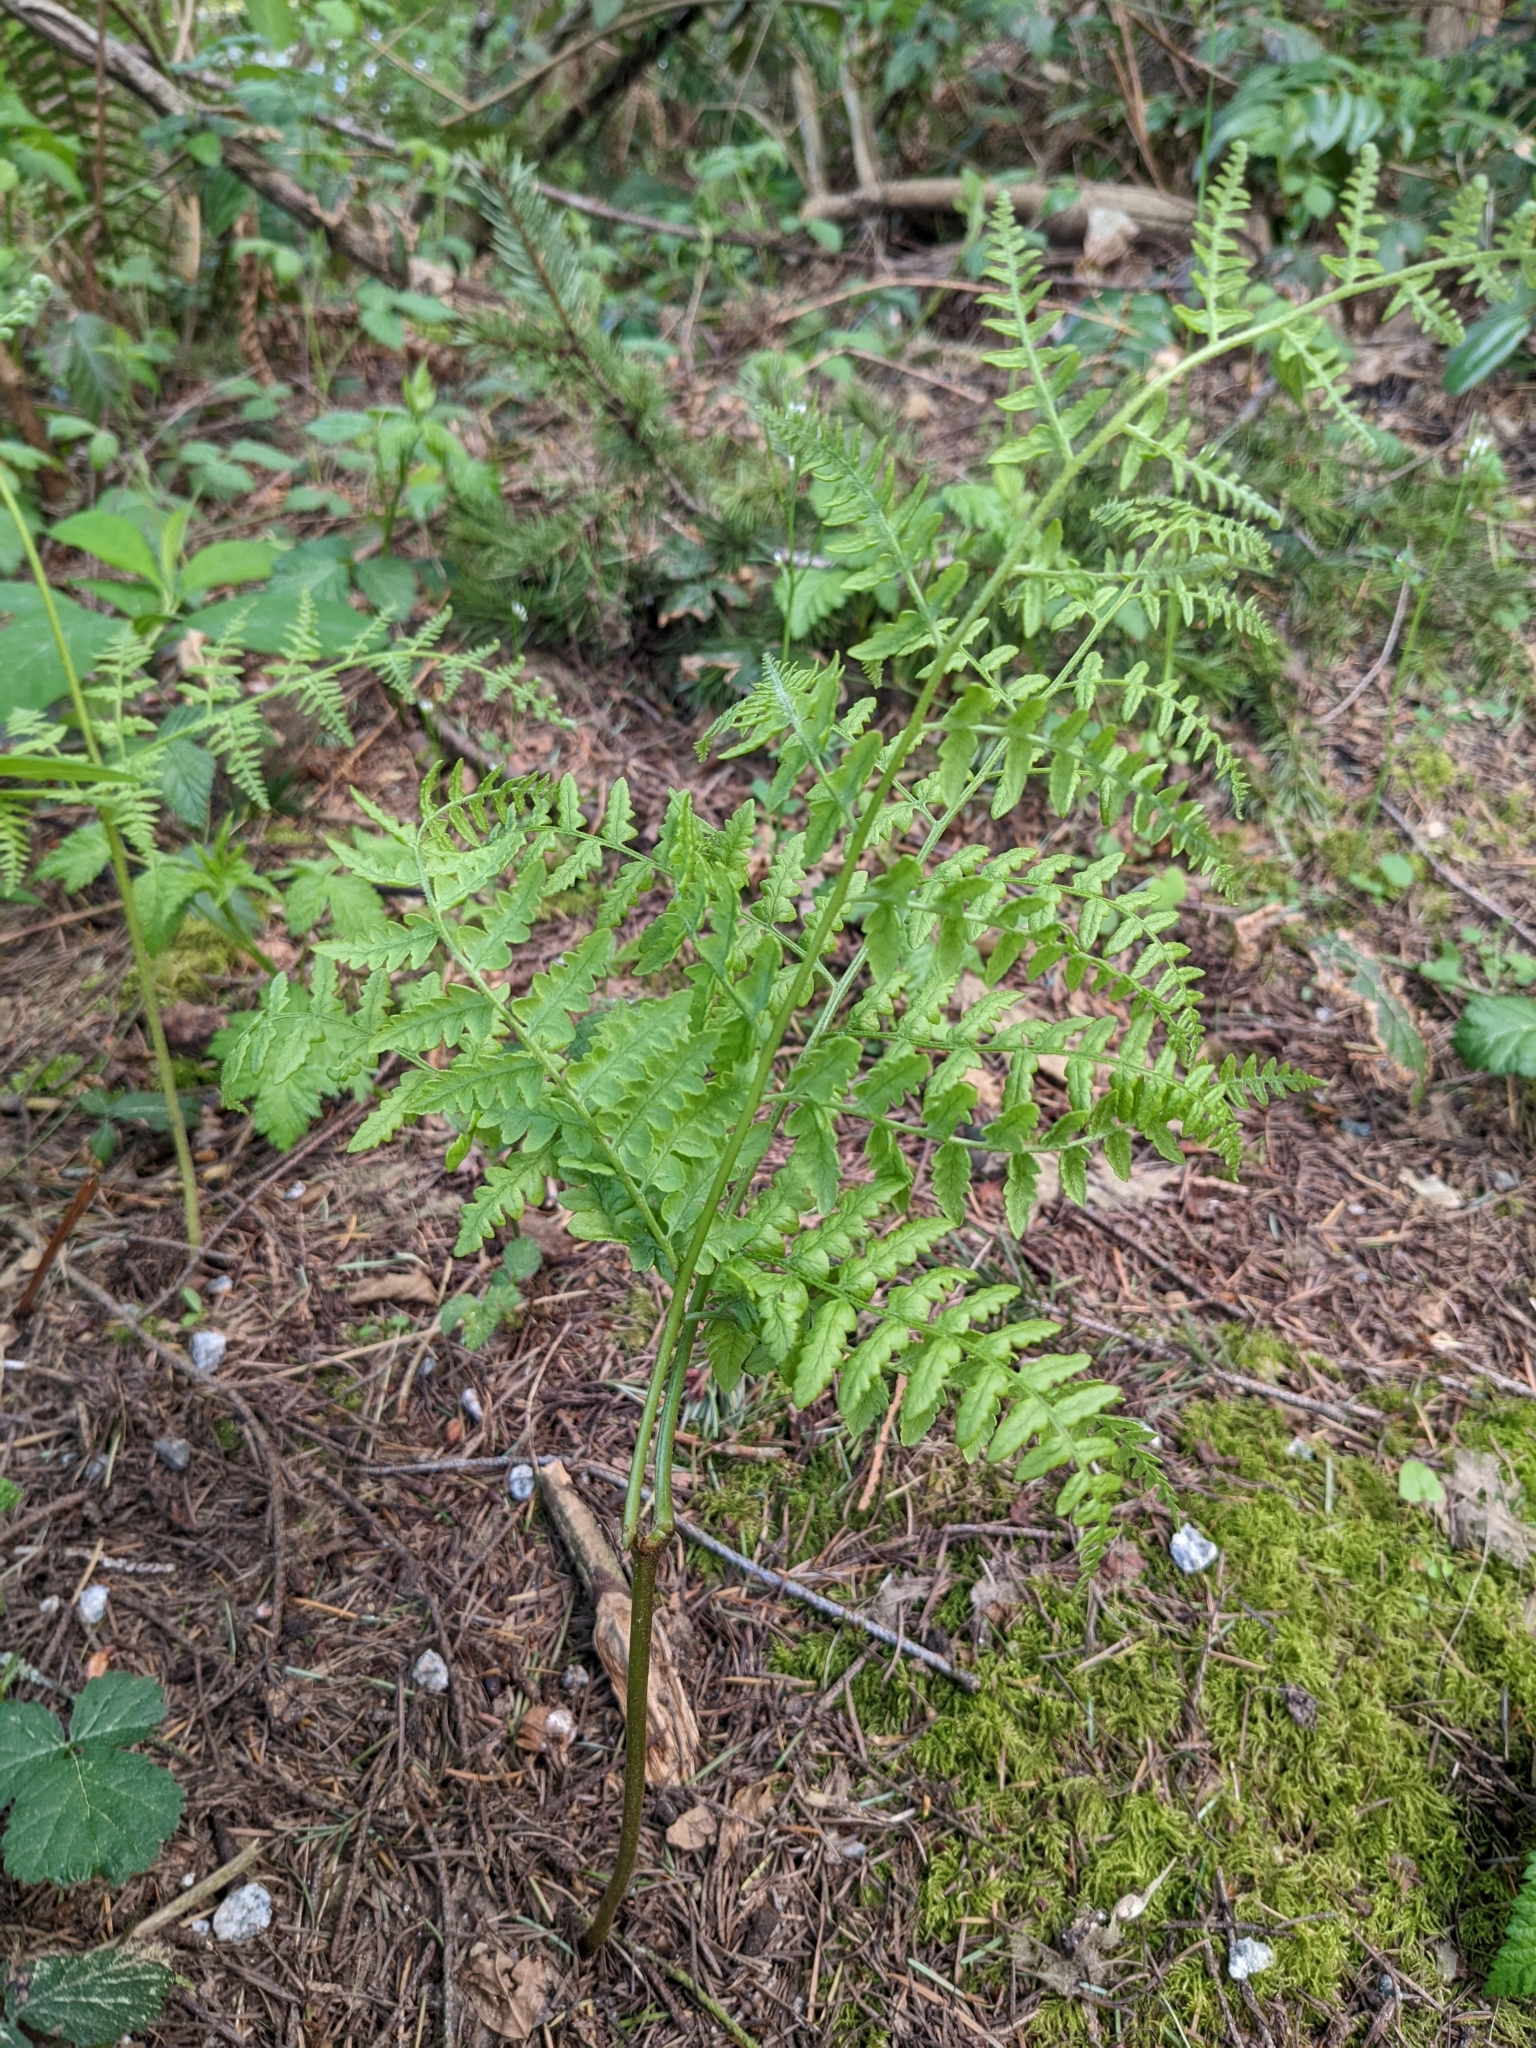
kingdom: Plantae
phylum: Tracheophyta
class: Polypodiopsida
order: Polypodiales
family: Dennstaedtiaceae
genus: Pteridium
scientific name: Pteridium aquilinum
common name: Bracken
